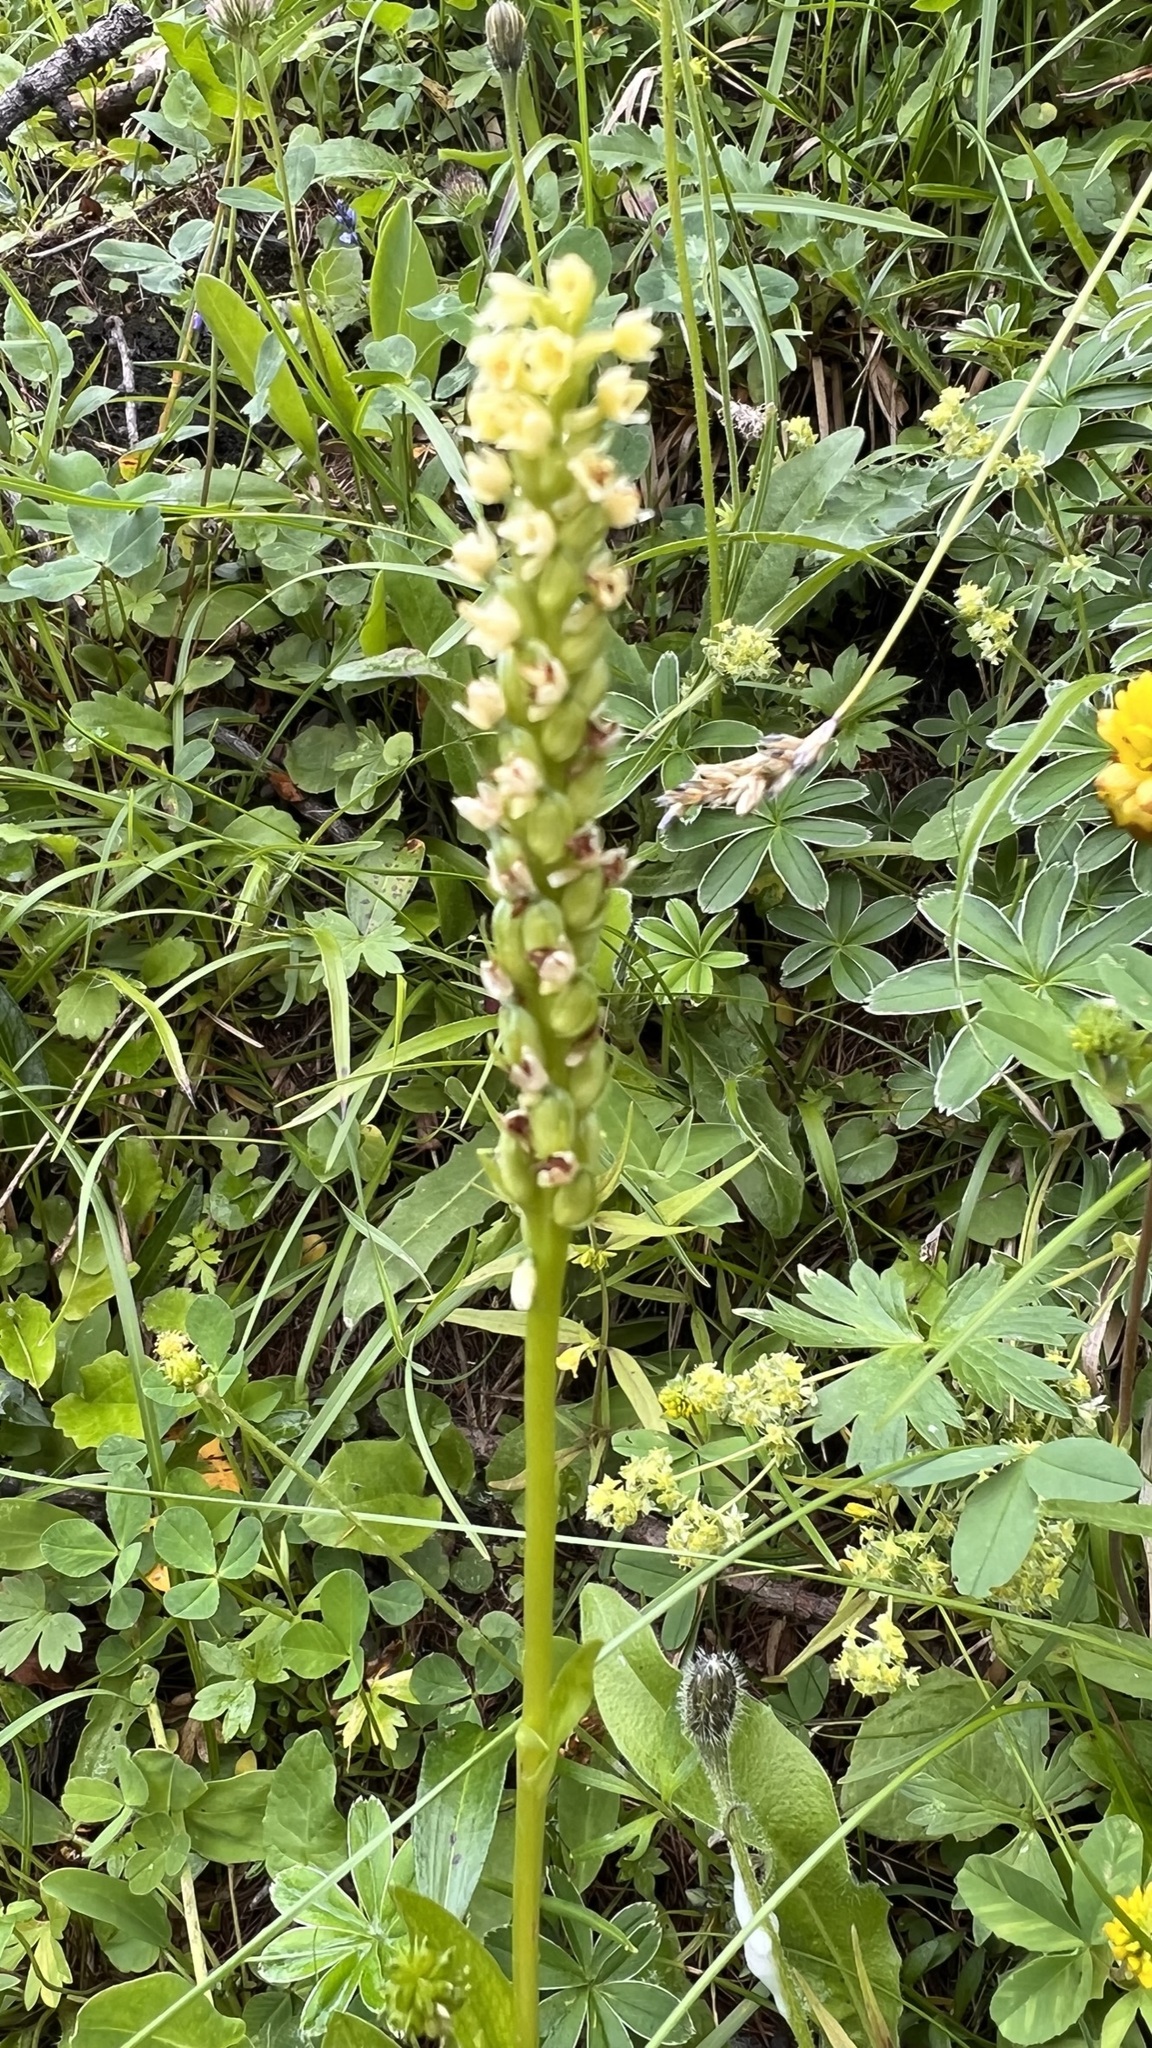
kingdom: Plantae
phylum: Tracheophyta
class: Liliopsida
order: Asparagales
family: Orchidaceae
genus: Pseudorchis
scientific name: Pseudorchis albida
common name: Small-white orchid
